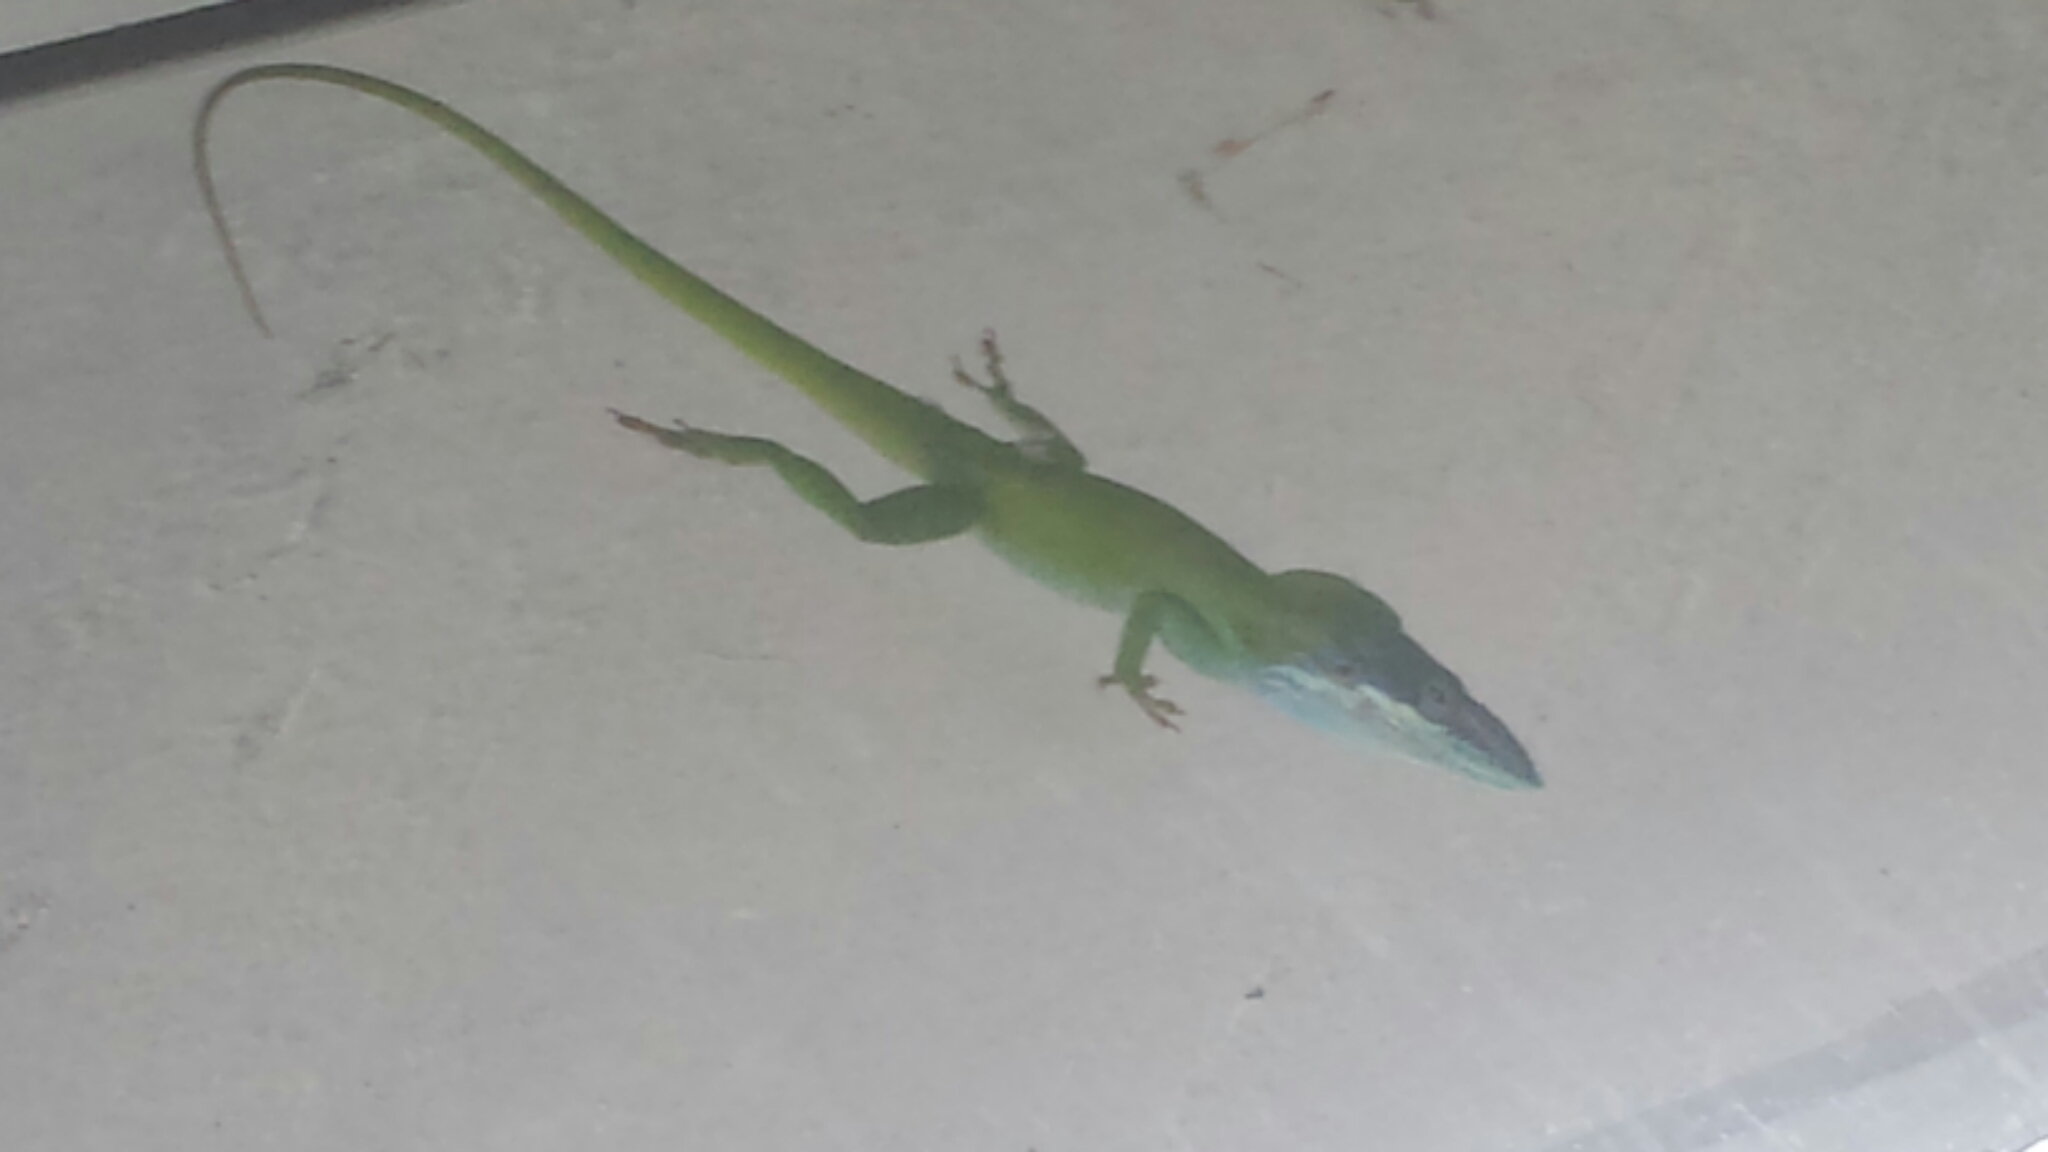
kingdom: Animalia
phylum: Chordata
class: Squamata
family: Dactyloidae
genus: Anolis
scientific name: Anolis allisoni
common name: Allison's anole
